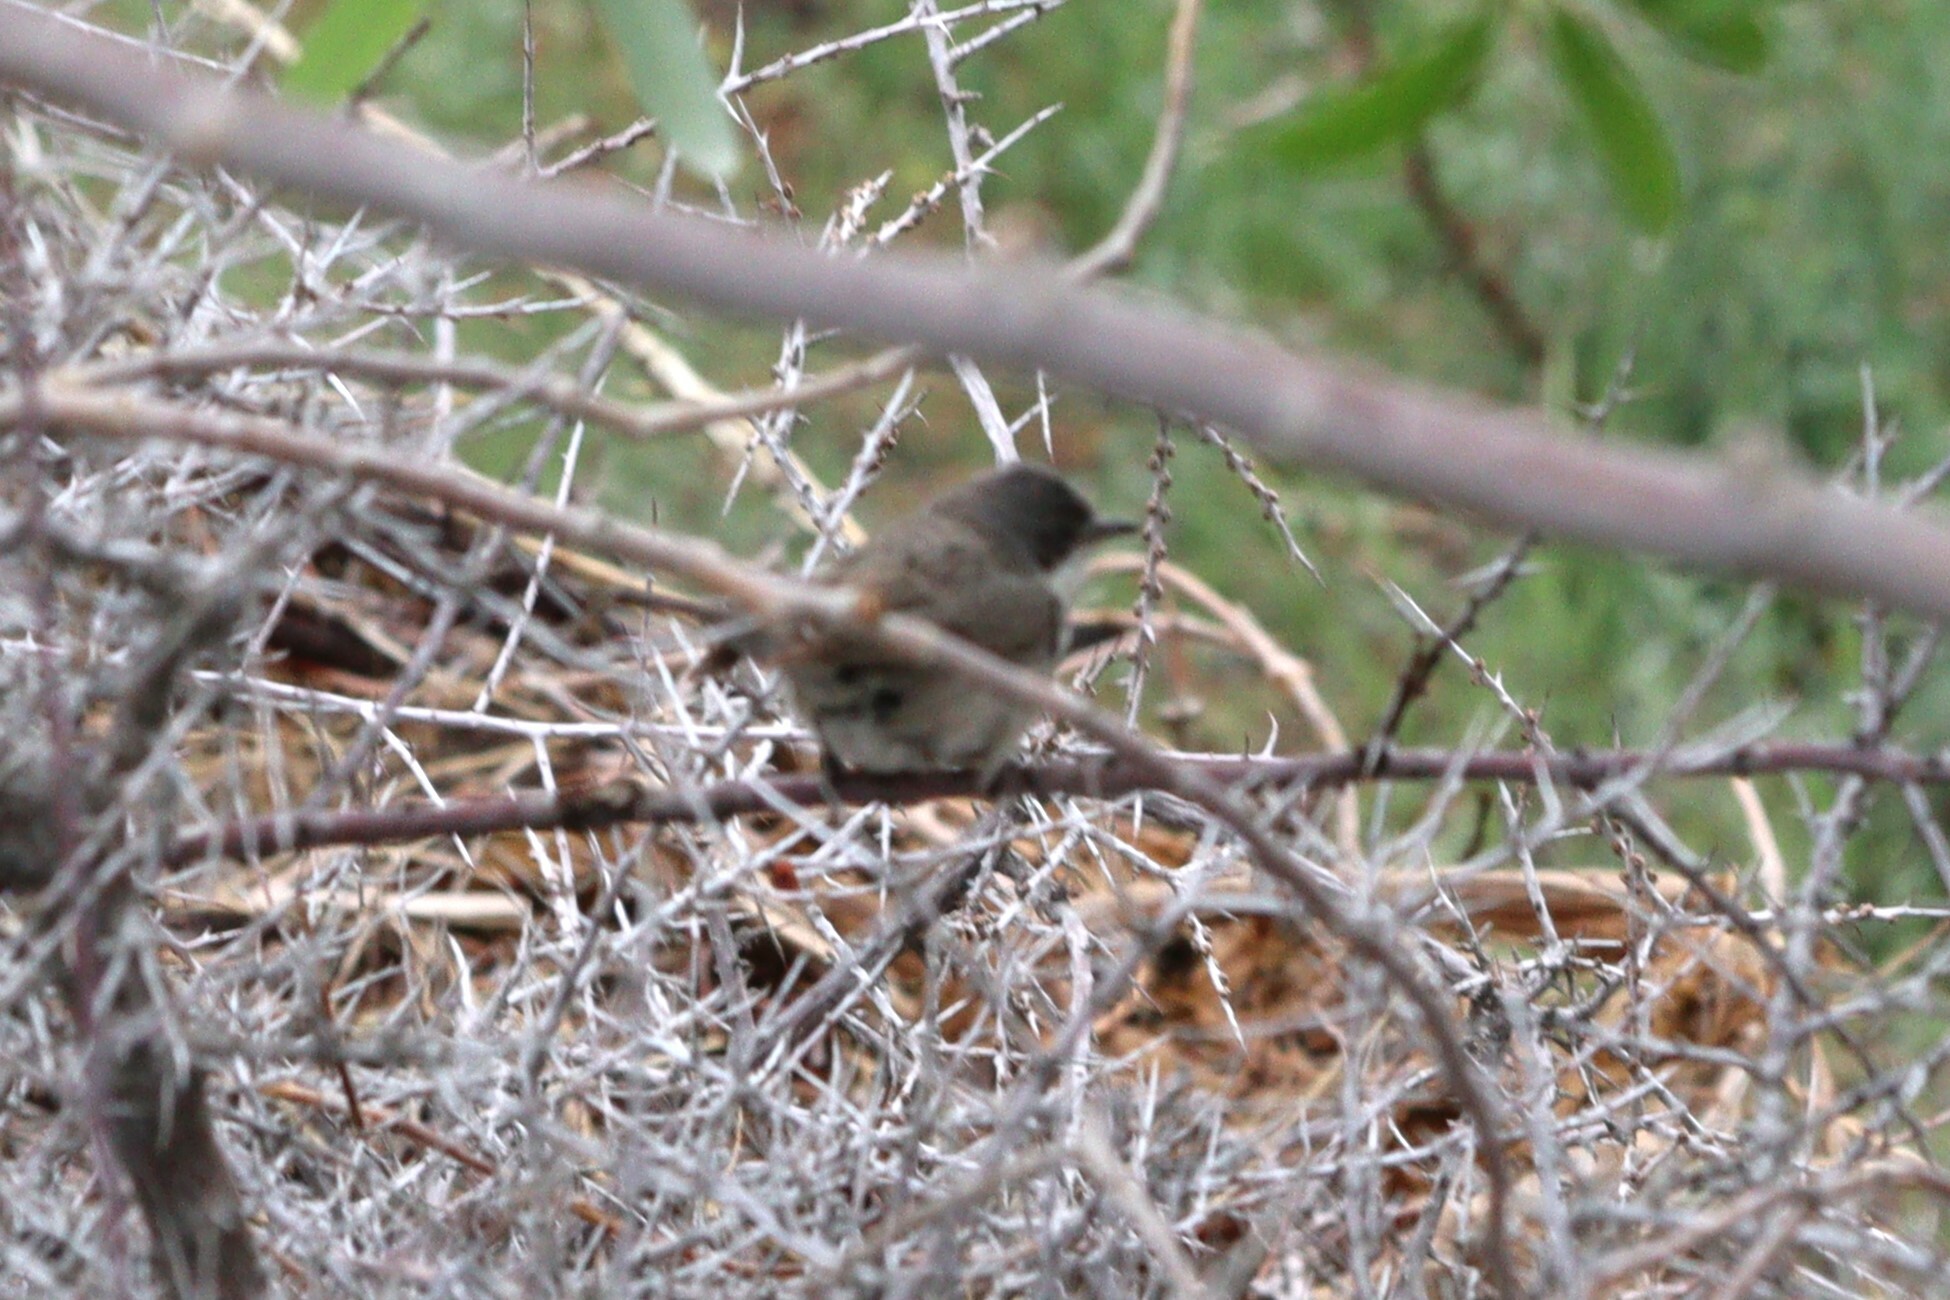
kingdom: Animalia
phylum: Chordata
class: Aves
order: Passeriformes
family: Sylviidae
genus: Sylvia
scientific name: Sylvia curruca
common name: Lesser whitethroat
